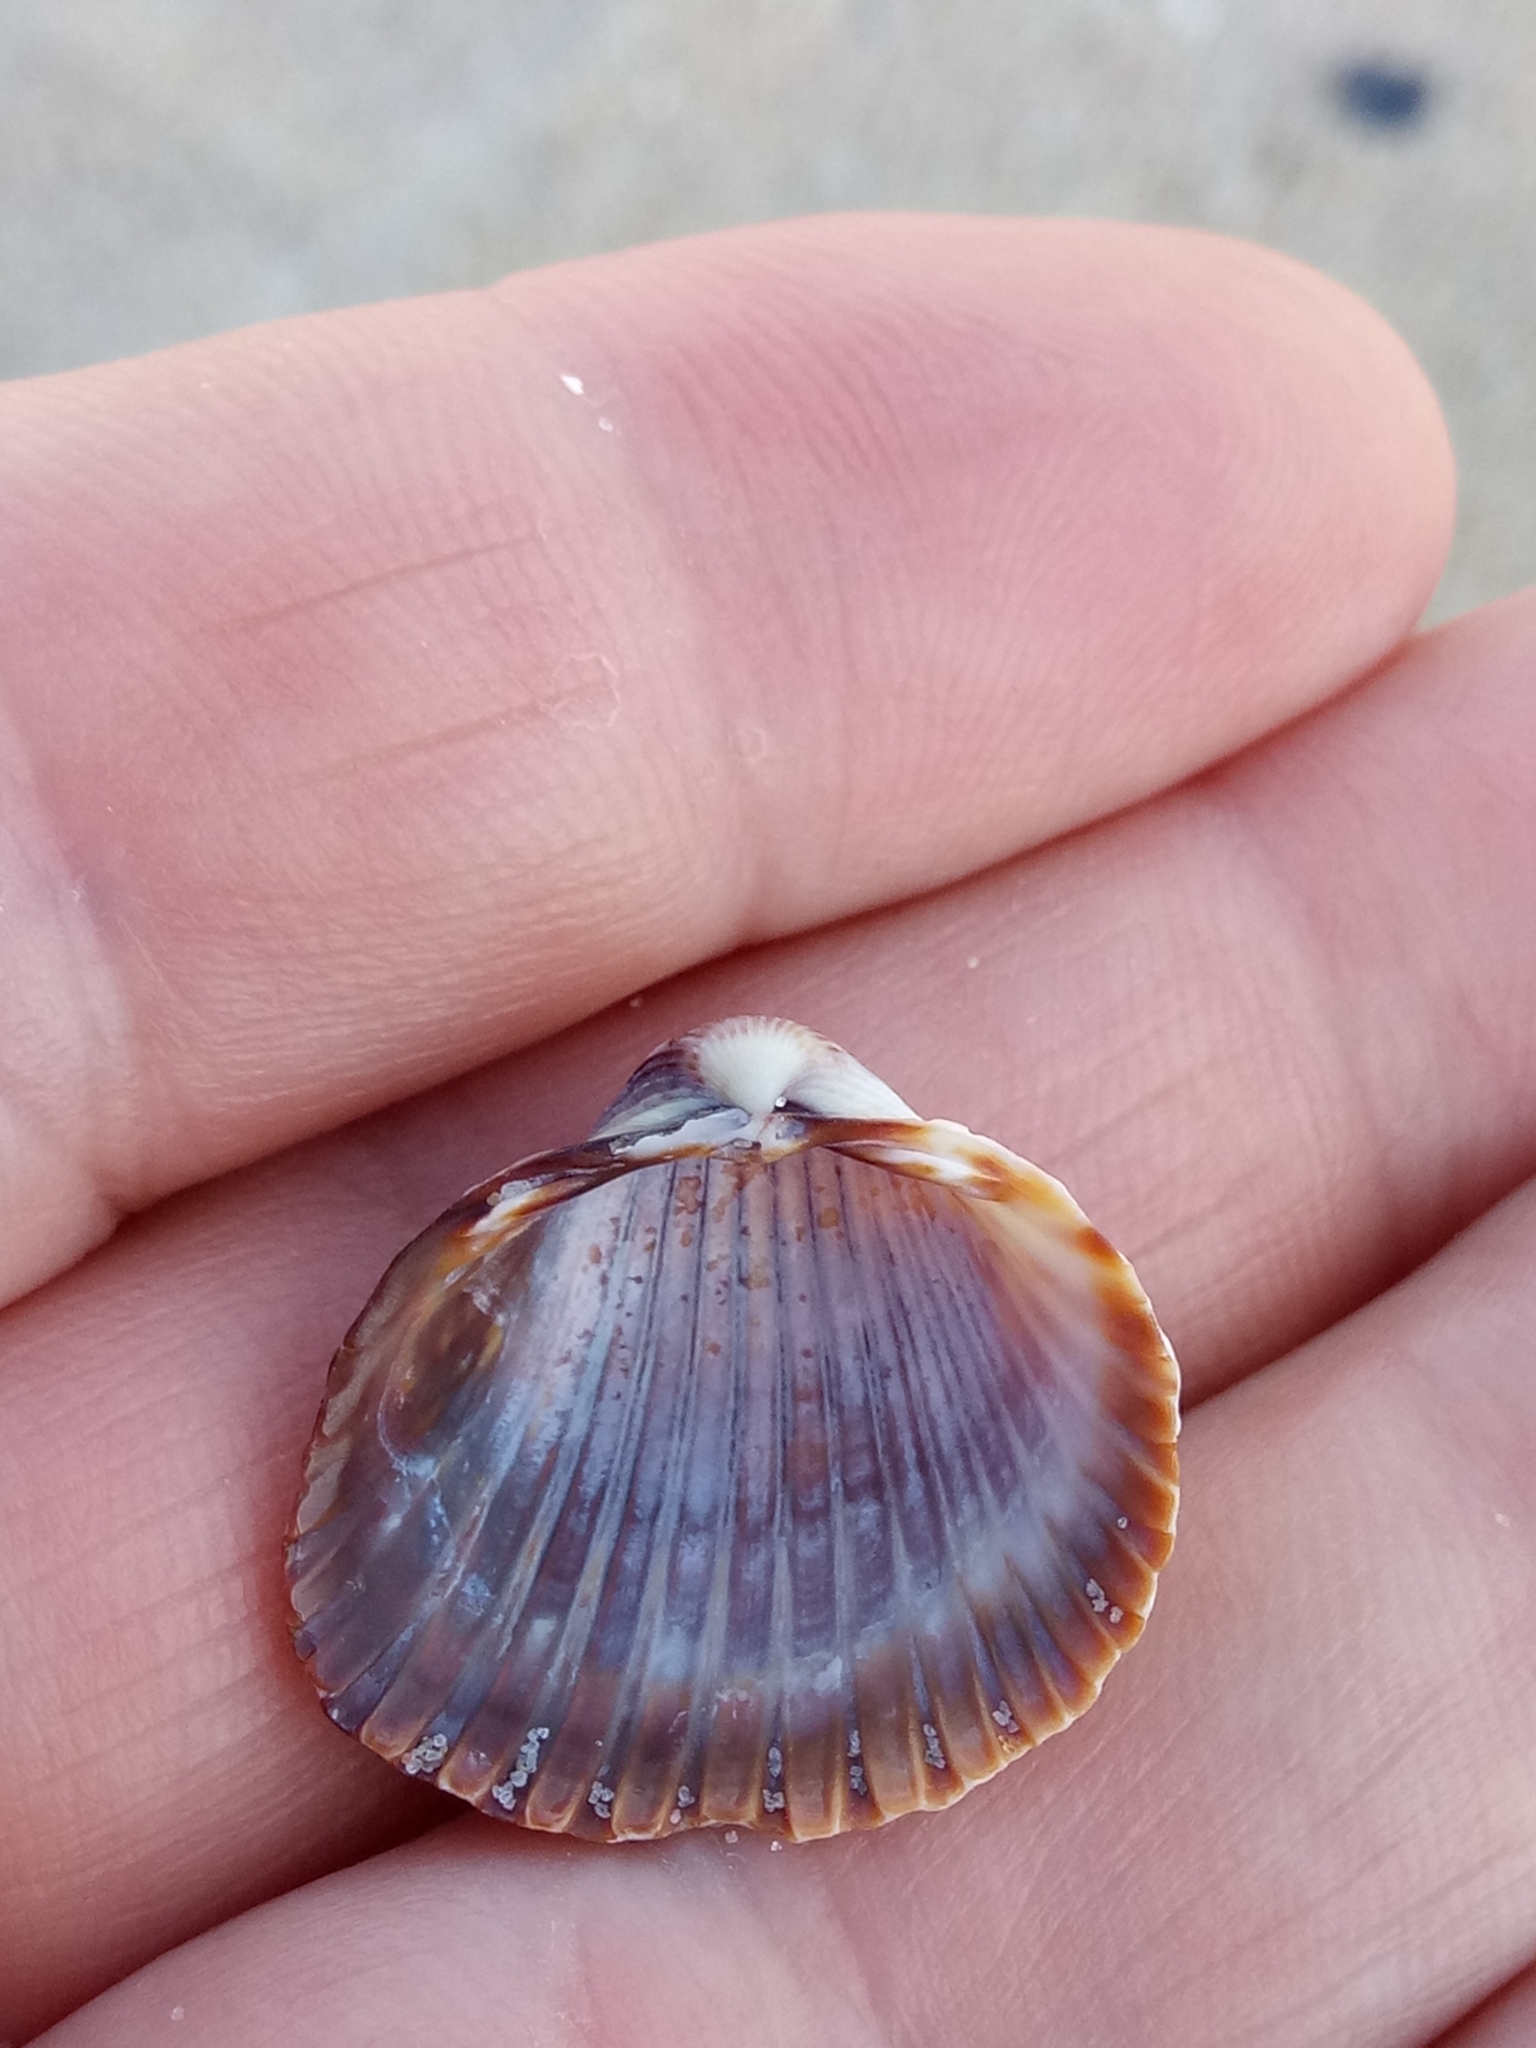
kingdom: Animalia
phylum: Mollusca
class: Bivalvia
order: Cardiida
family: Cardiidae
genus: Cerastoderma
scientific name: Cerastoderma glaucum
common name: Lagoon cockle
